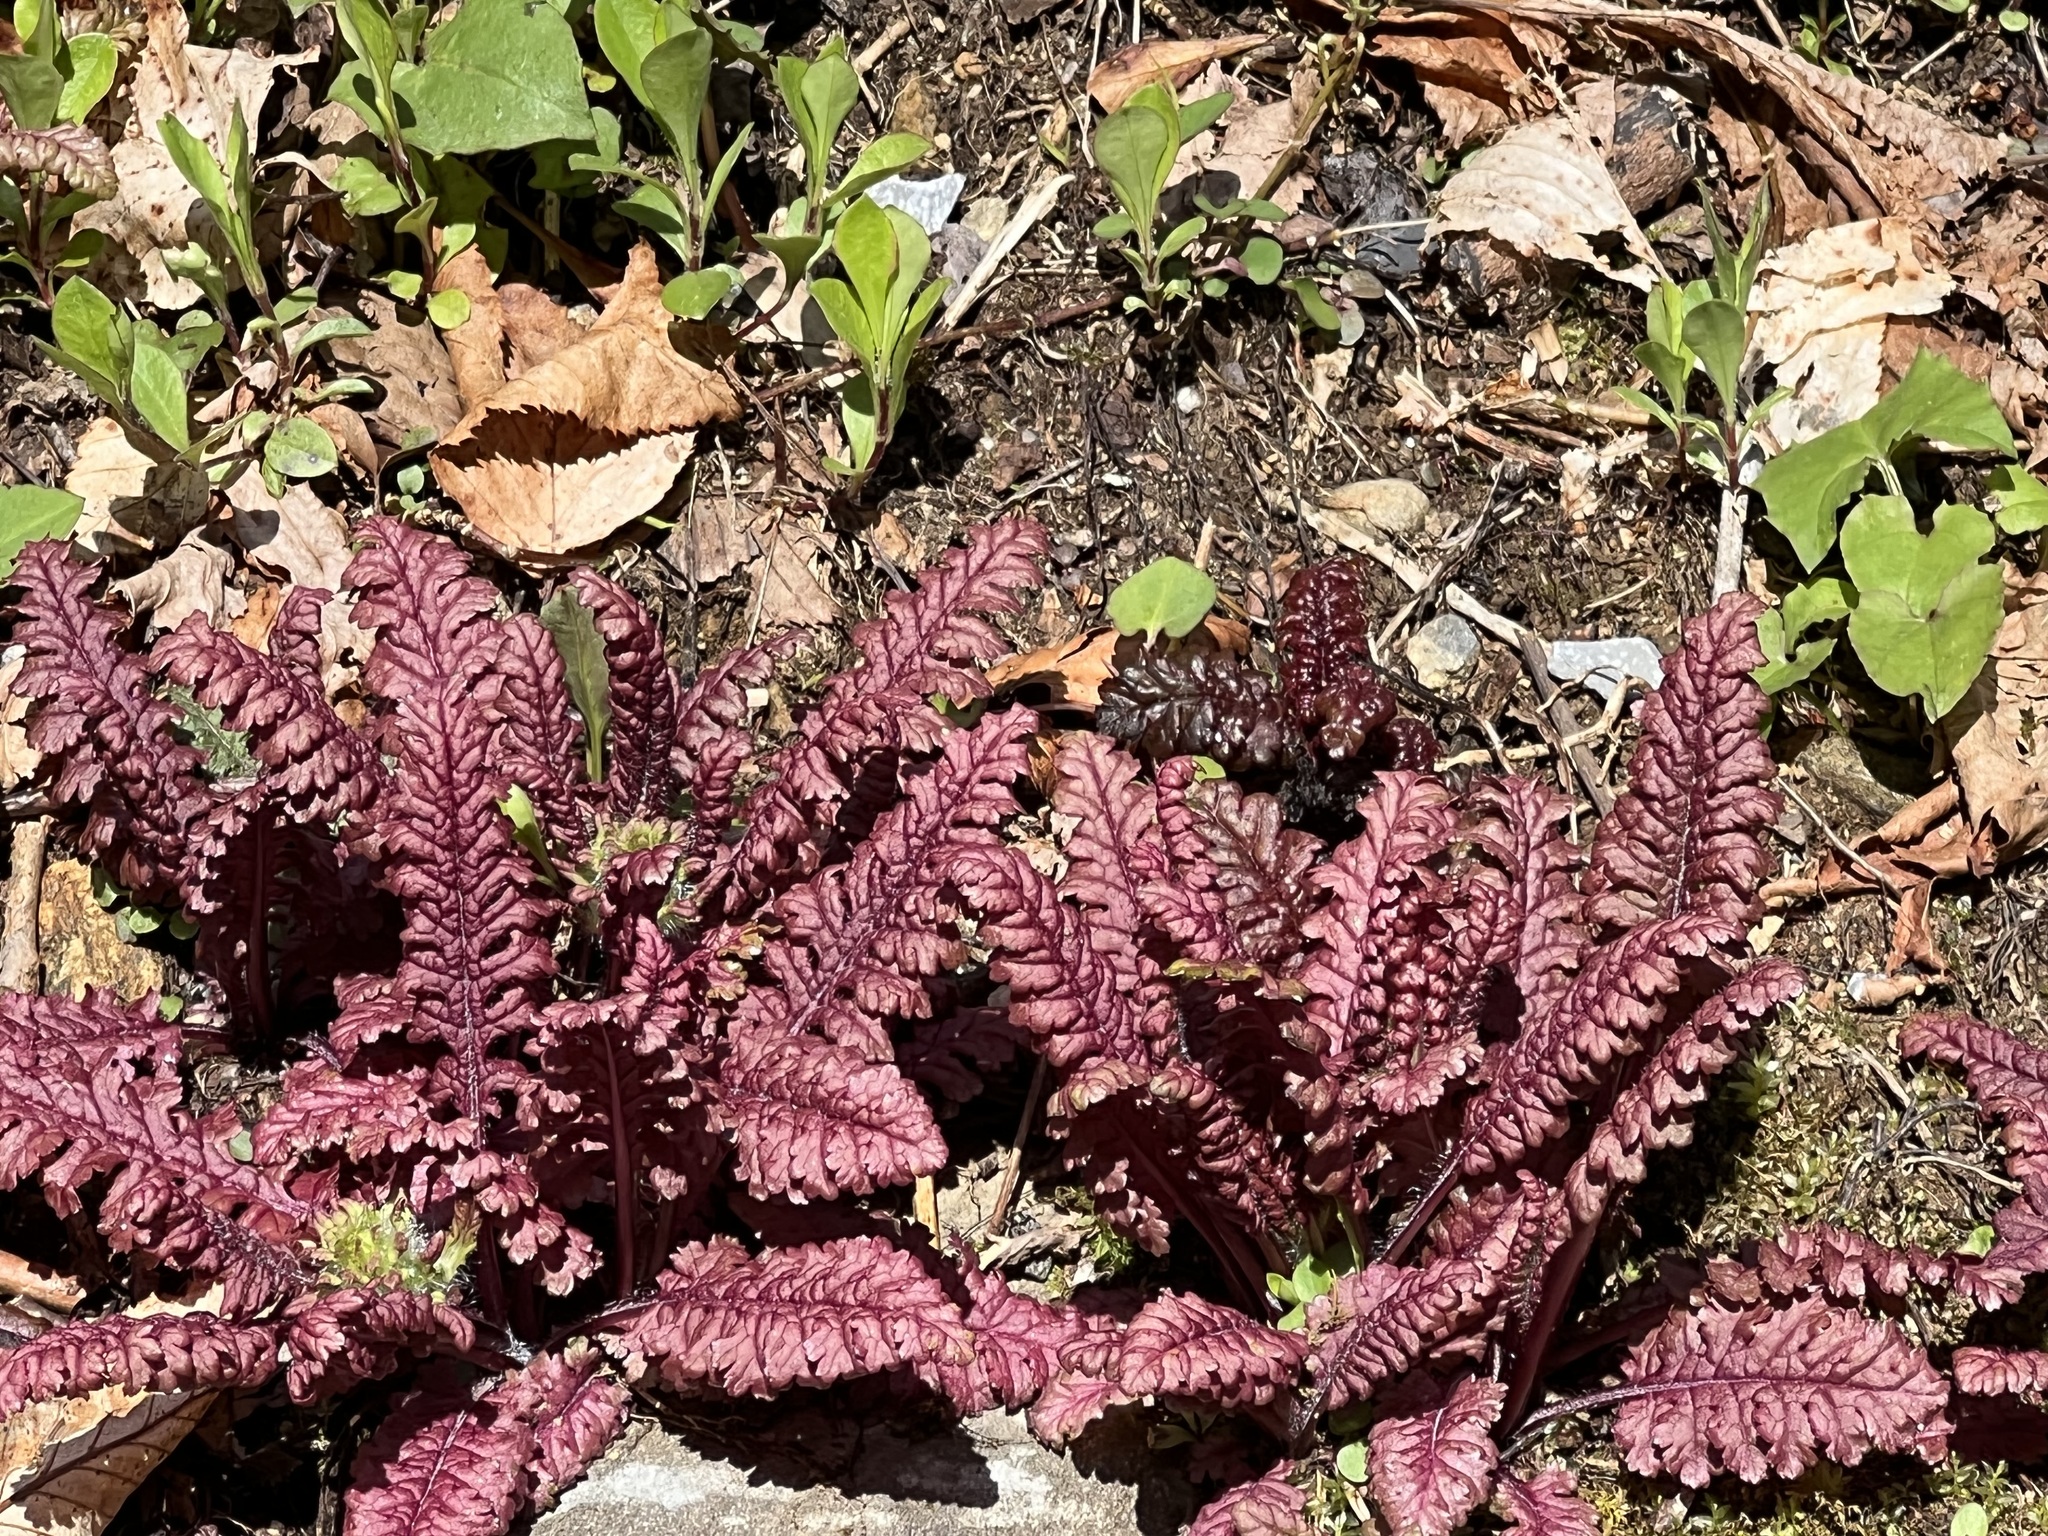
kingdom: Plantae
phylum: Tracheophyta
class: Magnoliopsida
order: Lamiales
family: Orobanchaceae
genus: Pedicularis
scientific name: Pedicularis canadensis
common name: Early lousewort
